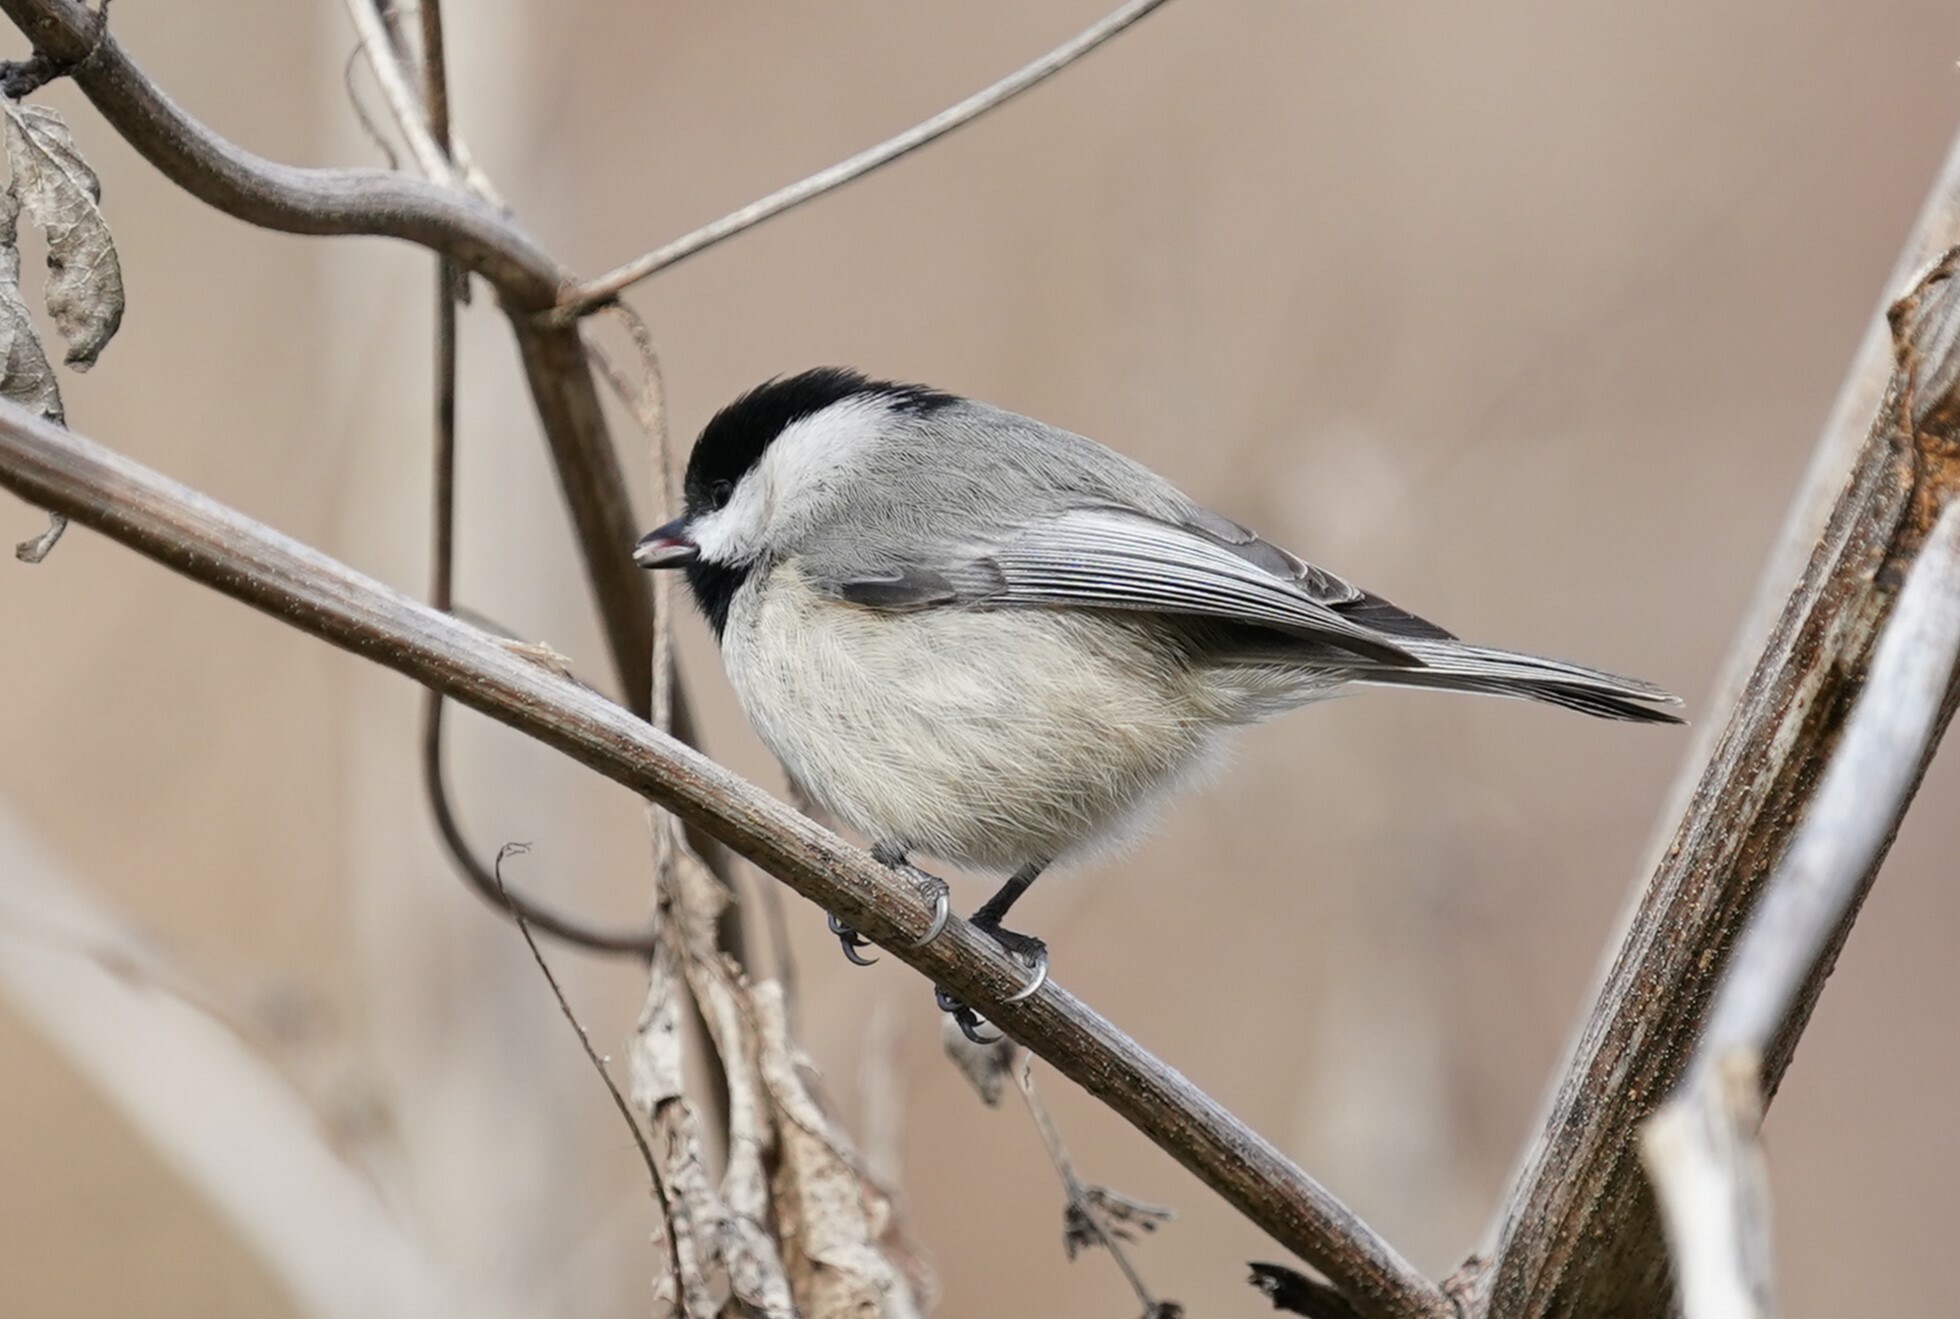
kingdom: Animalia
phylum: Chordata
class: Aves
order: Passeriformes
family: Paridae
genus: Poecile
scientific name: Poecile carolinensis
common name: Carolina chickadee
